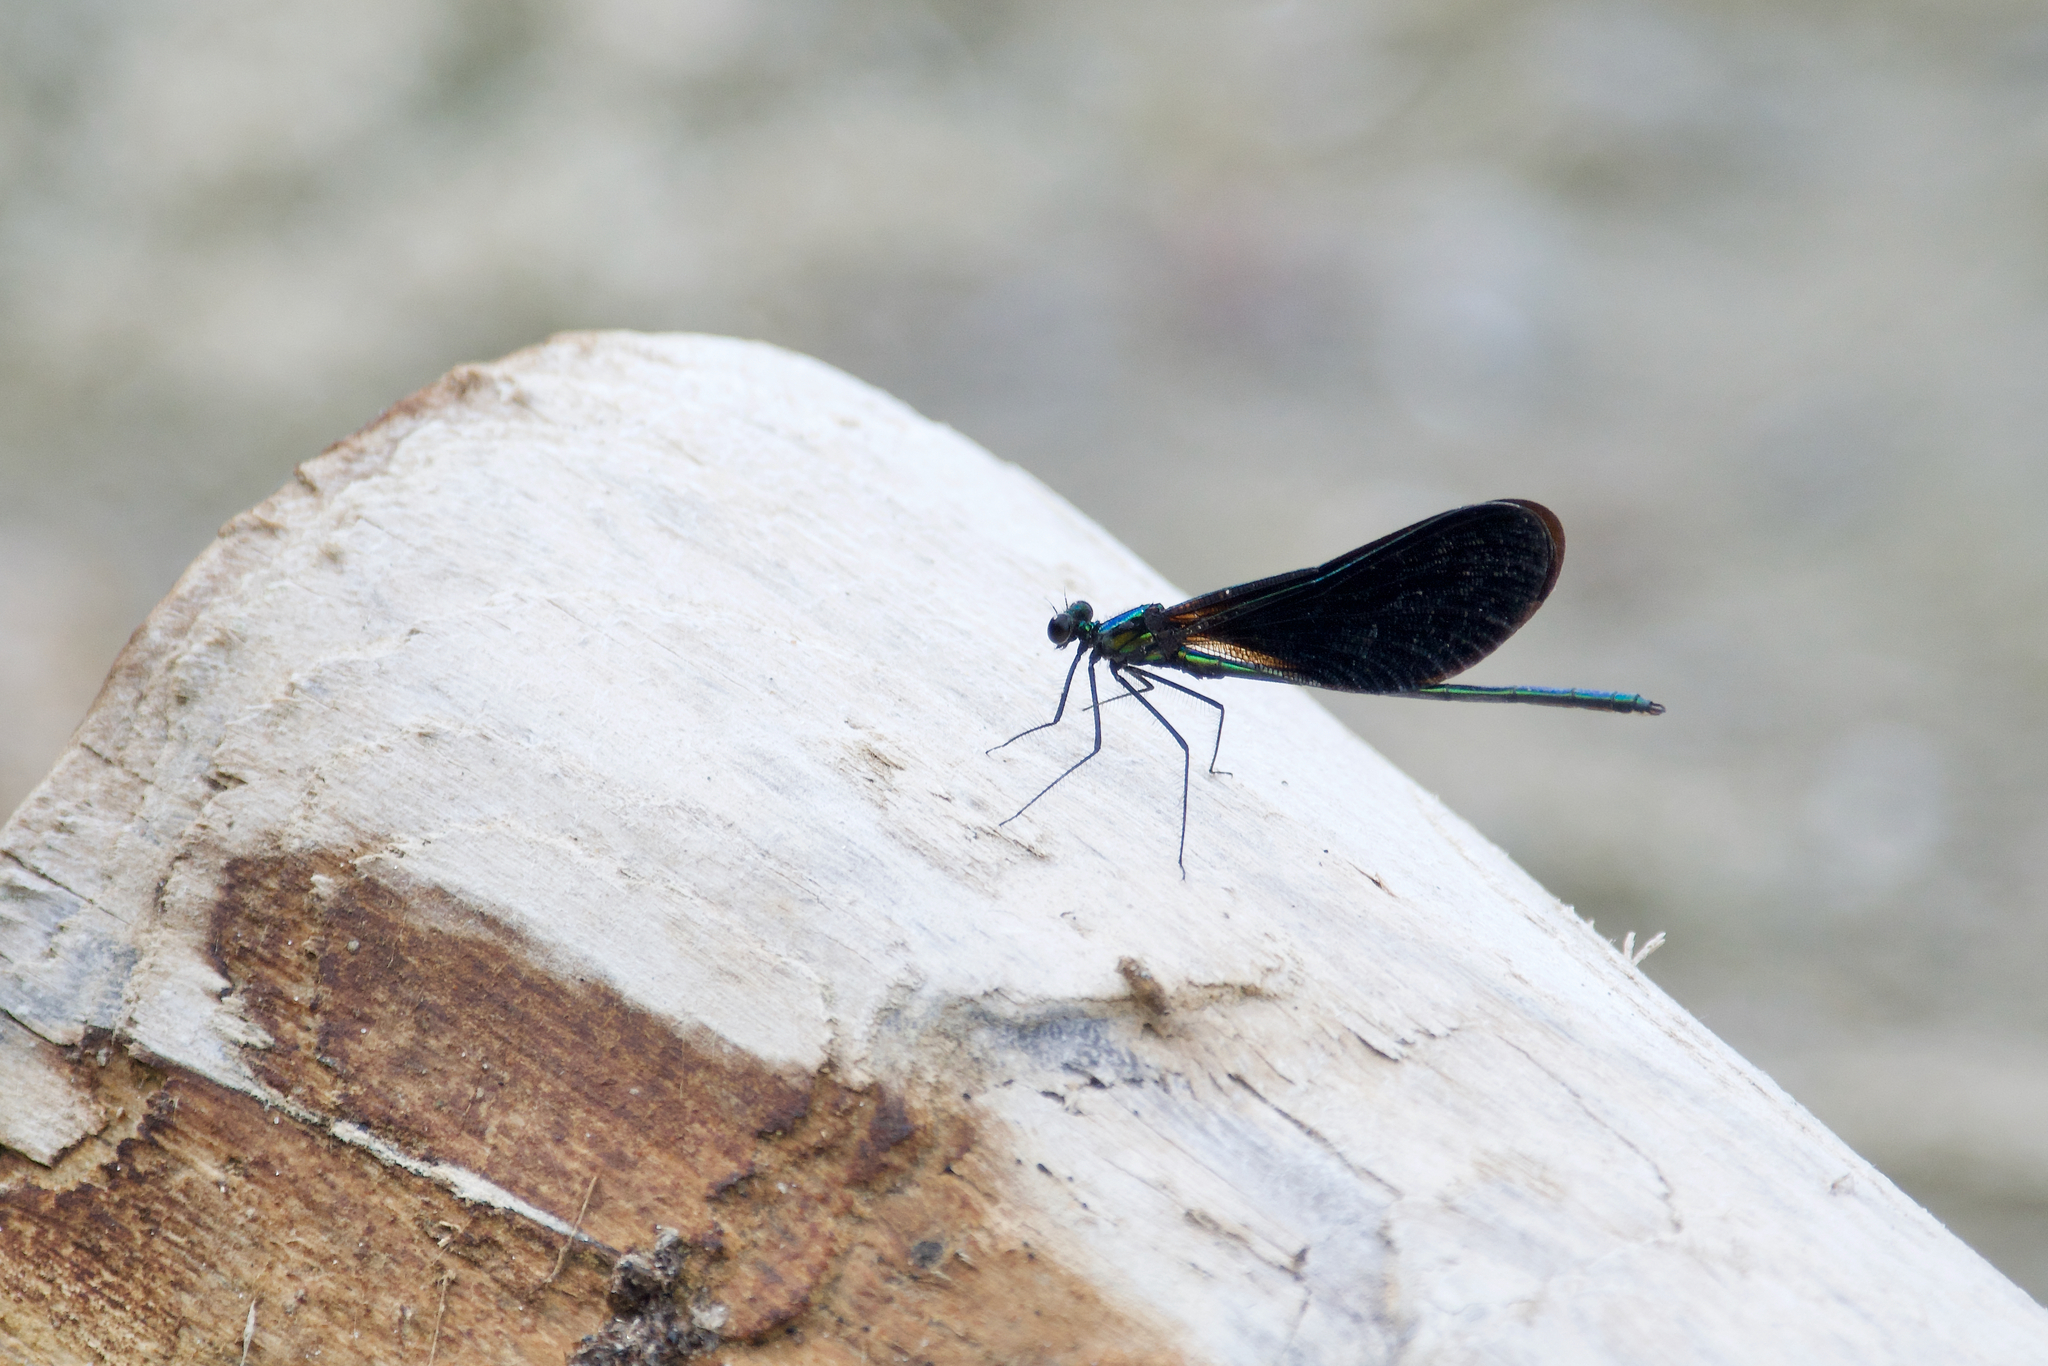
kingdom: Animalia
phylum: Arthropoda
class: Insecta
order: Odonata
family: Calopterygidae
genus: Calopteryx
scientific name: Calopteryx maculata
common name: Ebony jewelwing
